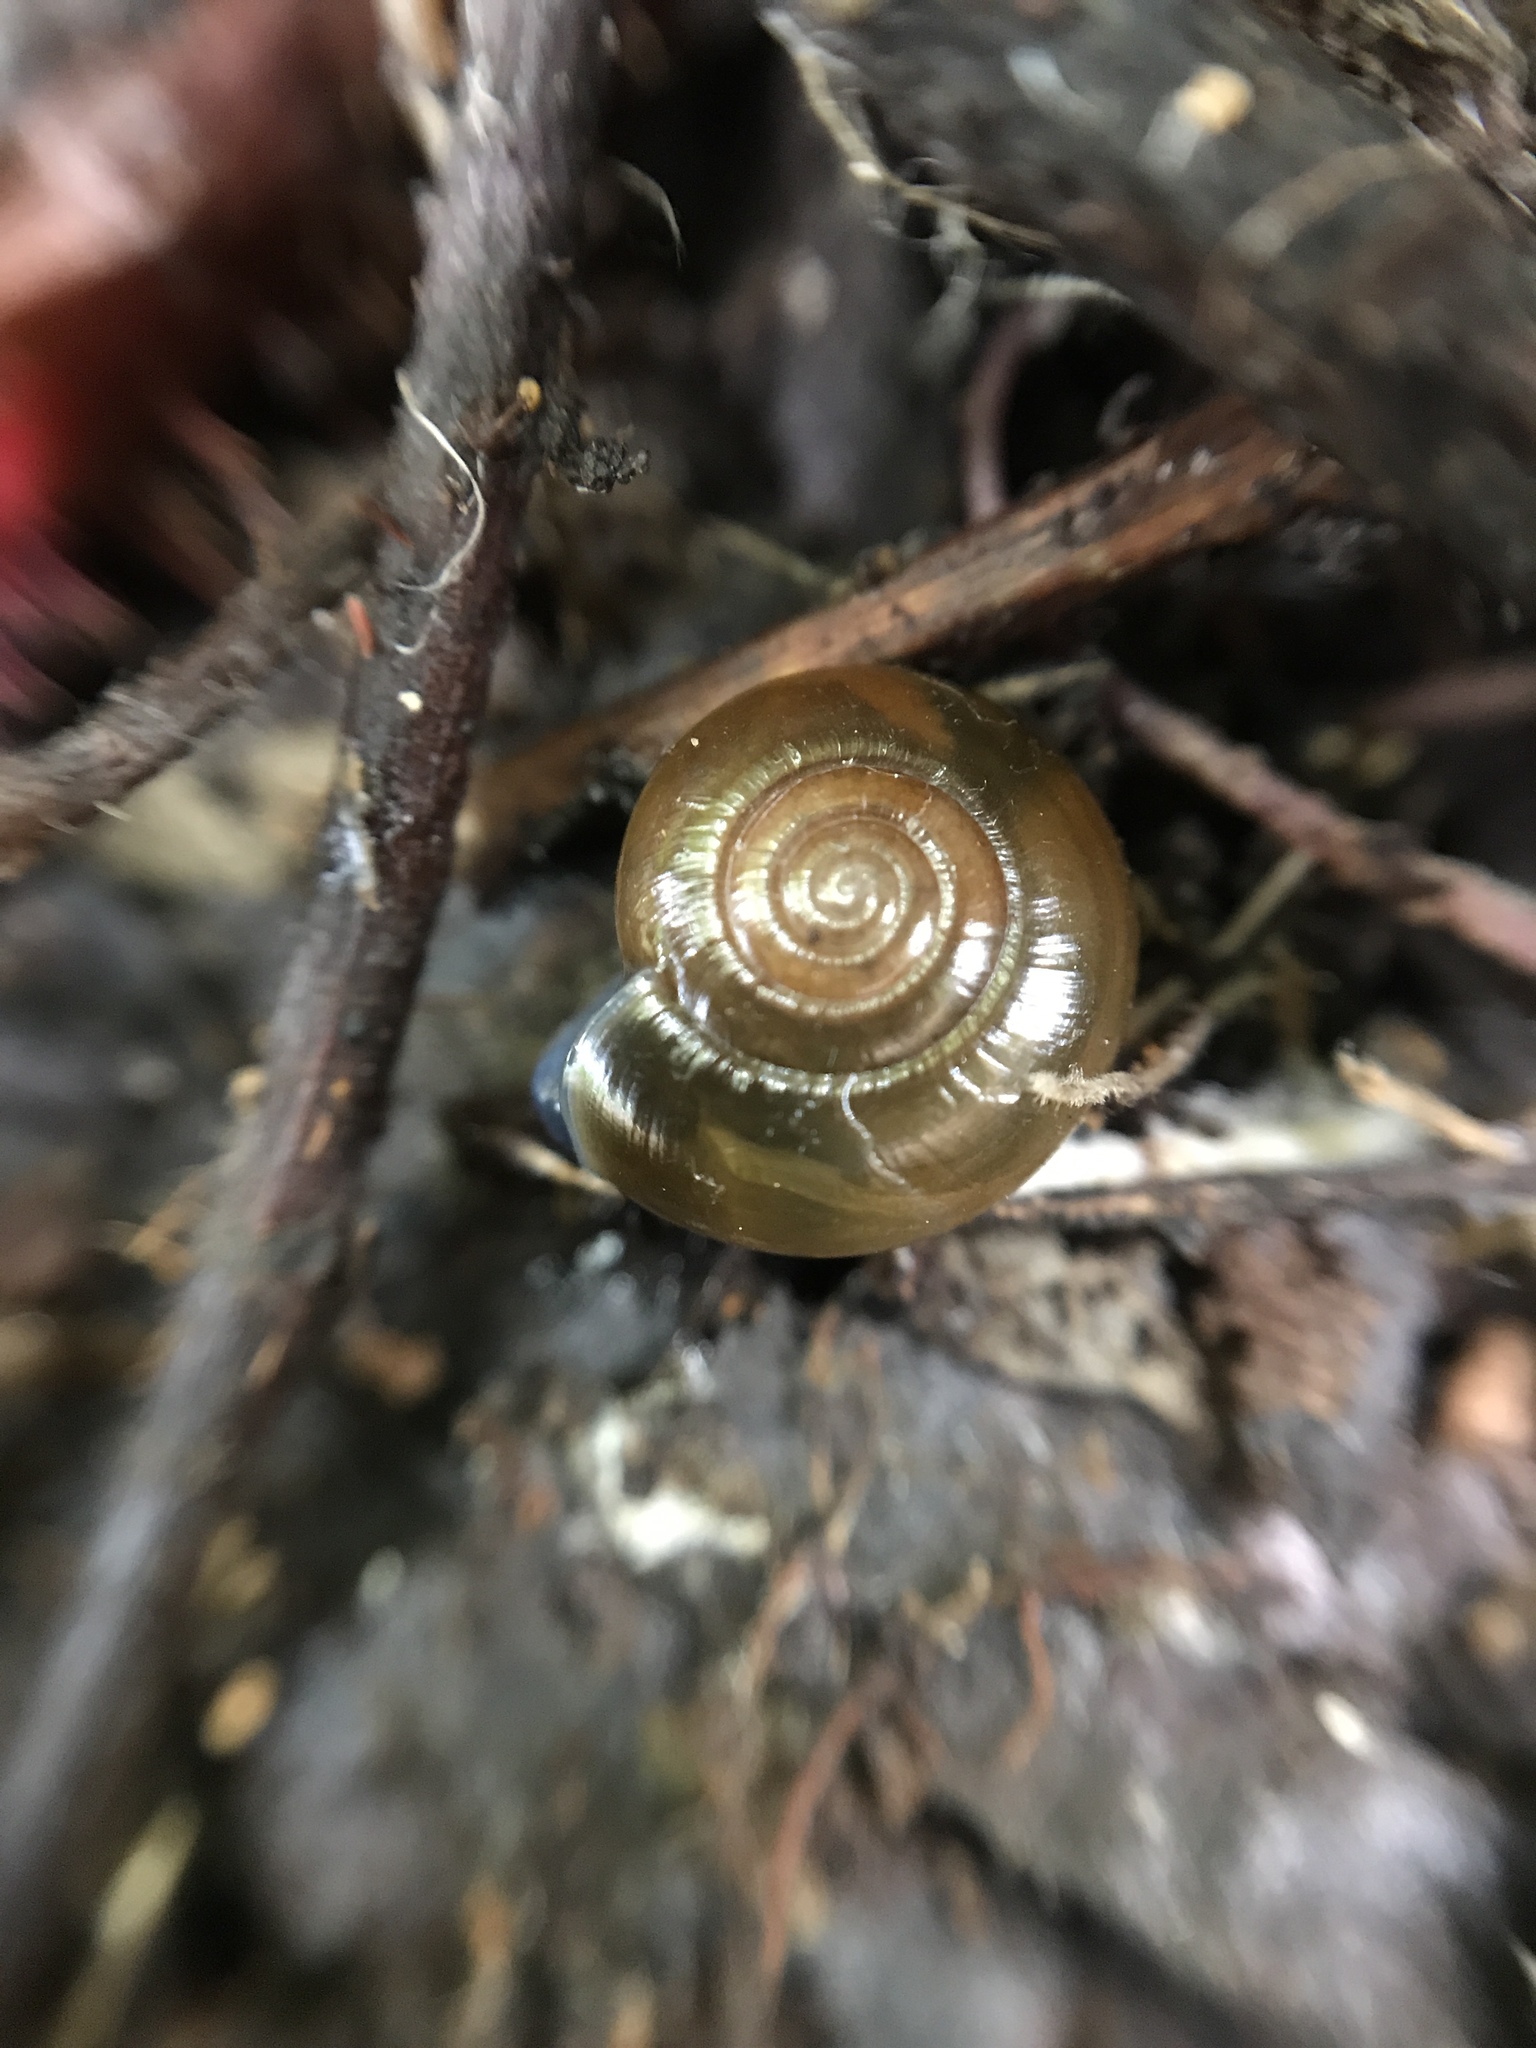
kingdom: Animalia
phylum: Mollusca
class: Gastropoda
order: Stylommatophora
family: Oxychilidae
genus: Oxychilus
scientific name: Oxychilus draparnaudi
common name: Draparnaud's glass snail
